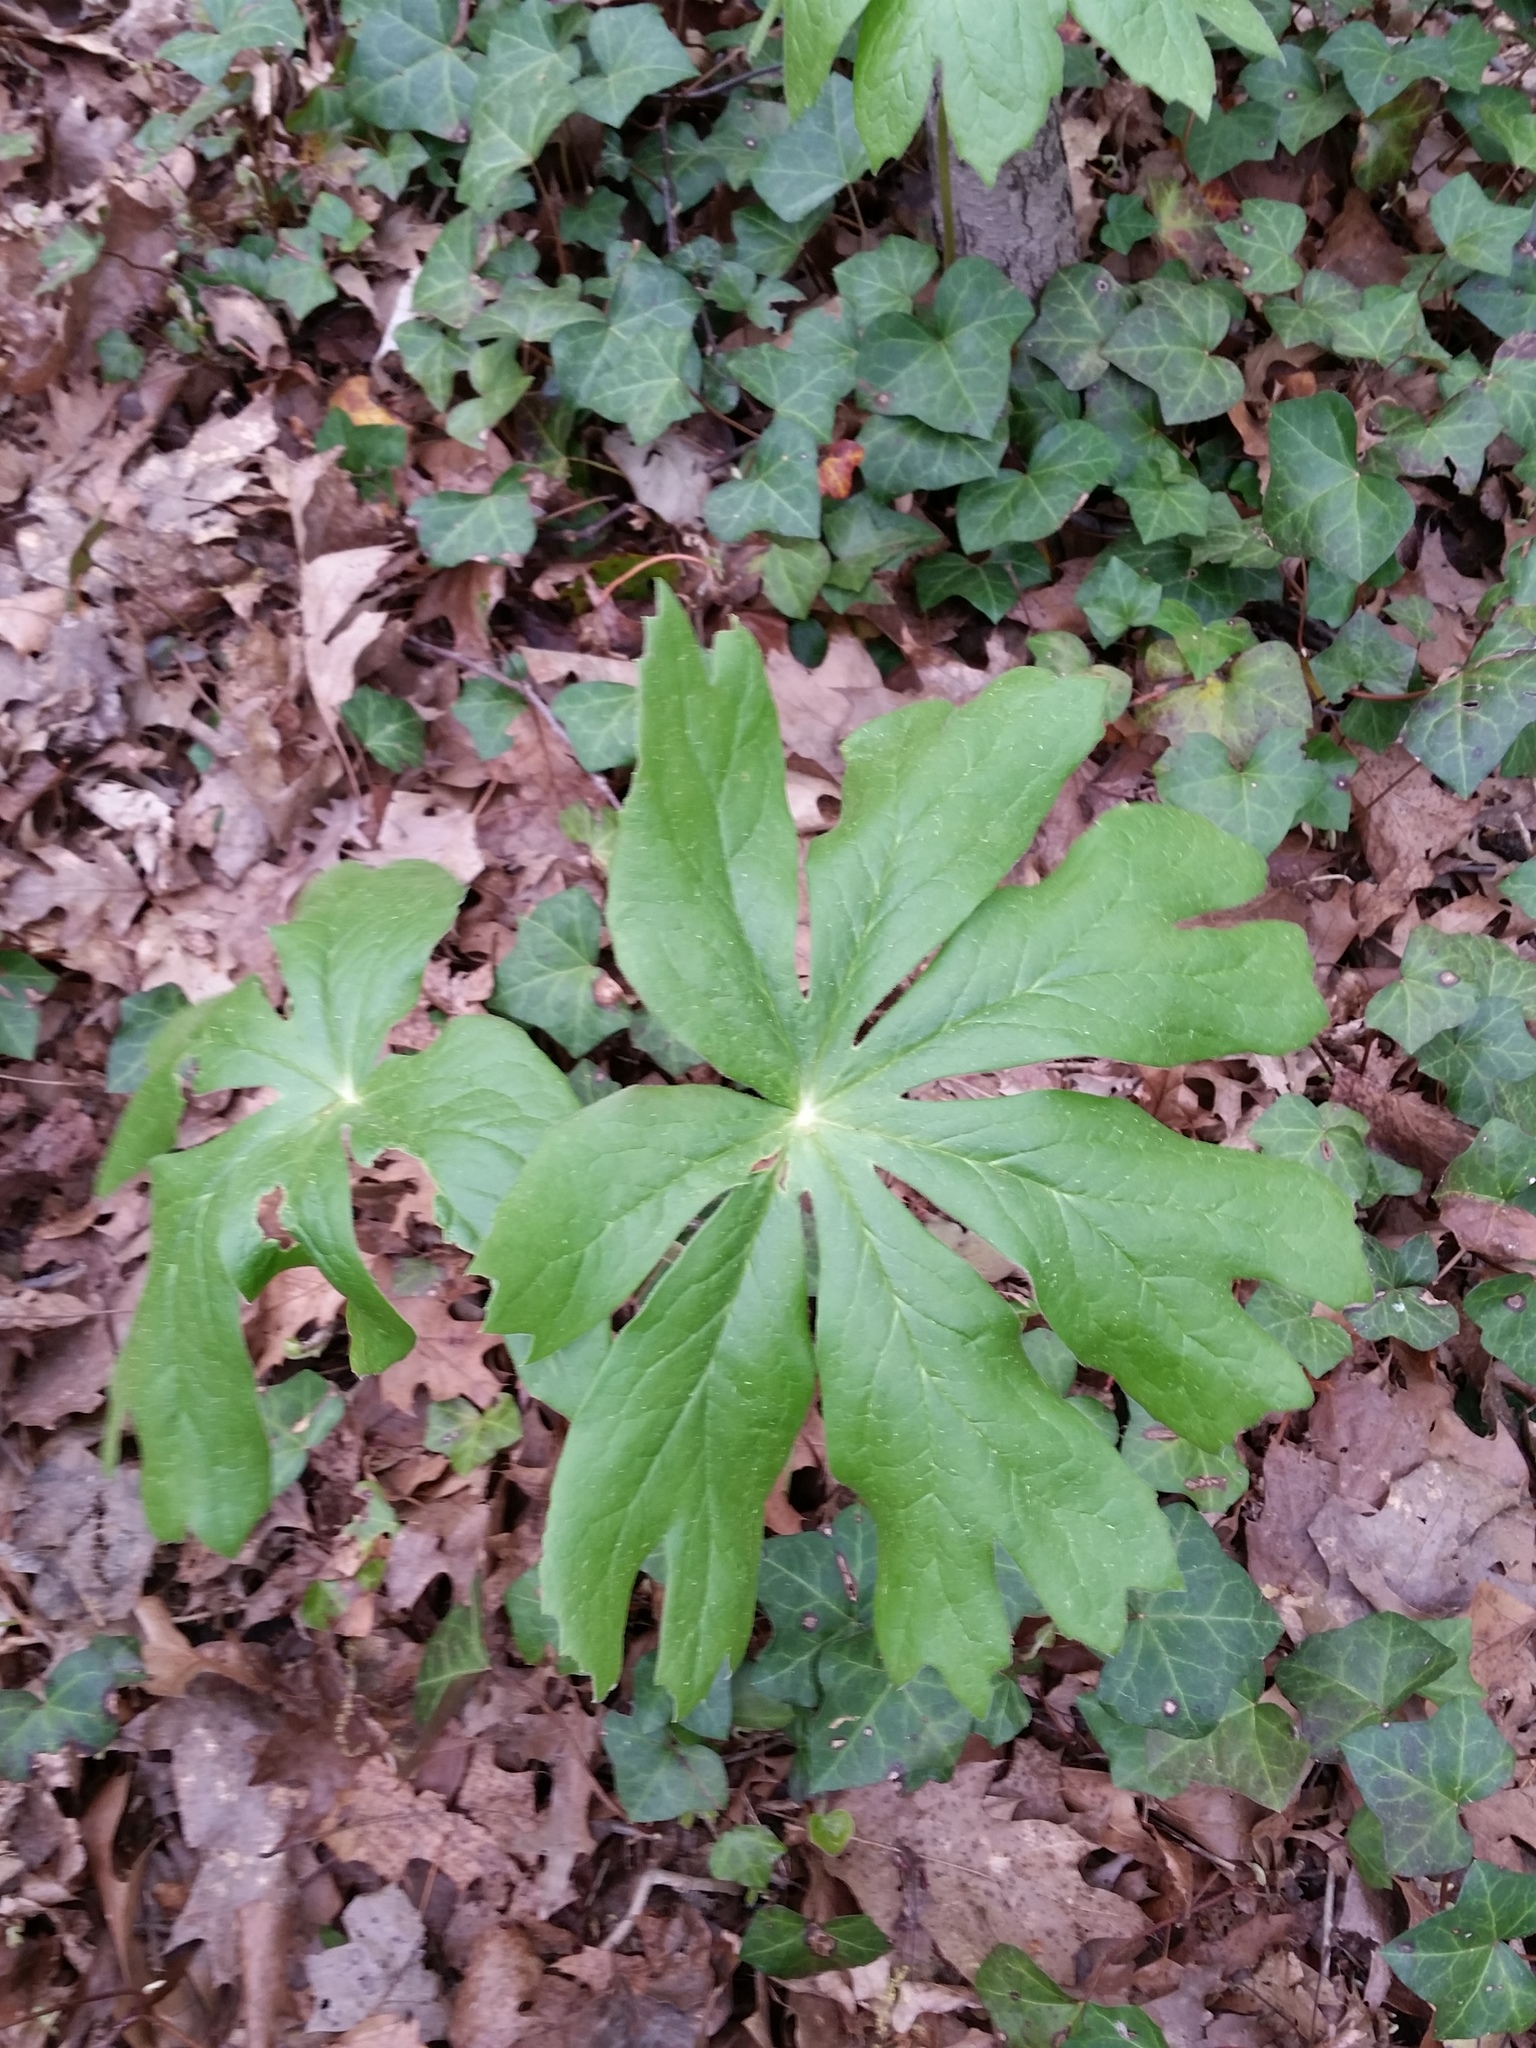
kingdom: Plantae
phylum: Tracheophyta
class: Magnoliopsida
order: Ranunculales
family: Berberidaceae
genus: Podophyllum
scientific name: Podophyllum peltatum
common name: Wild mandrake
